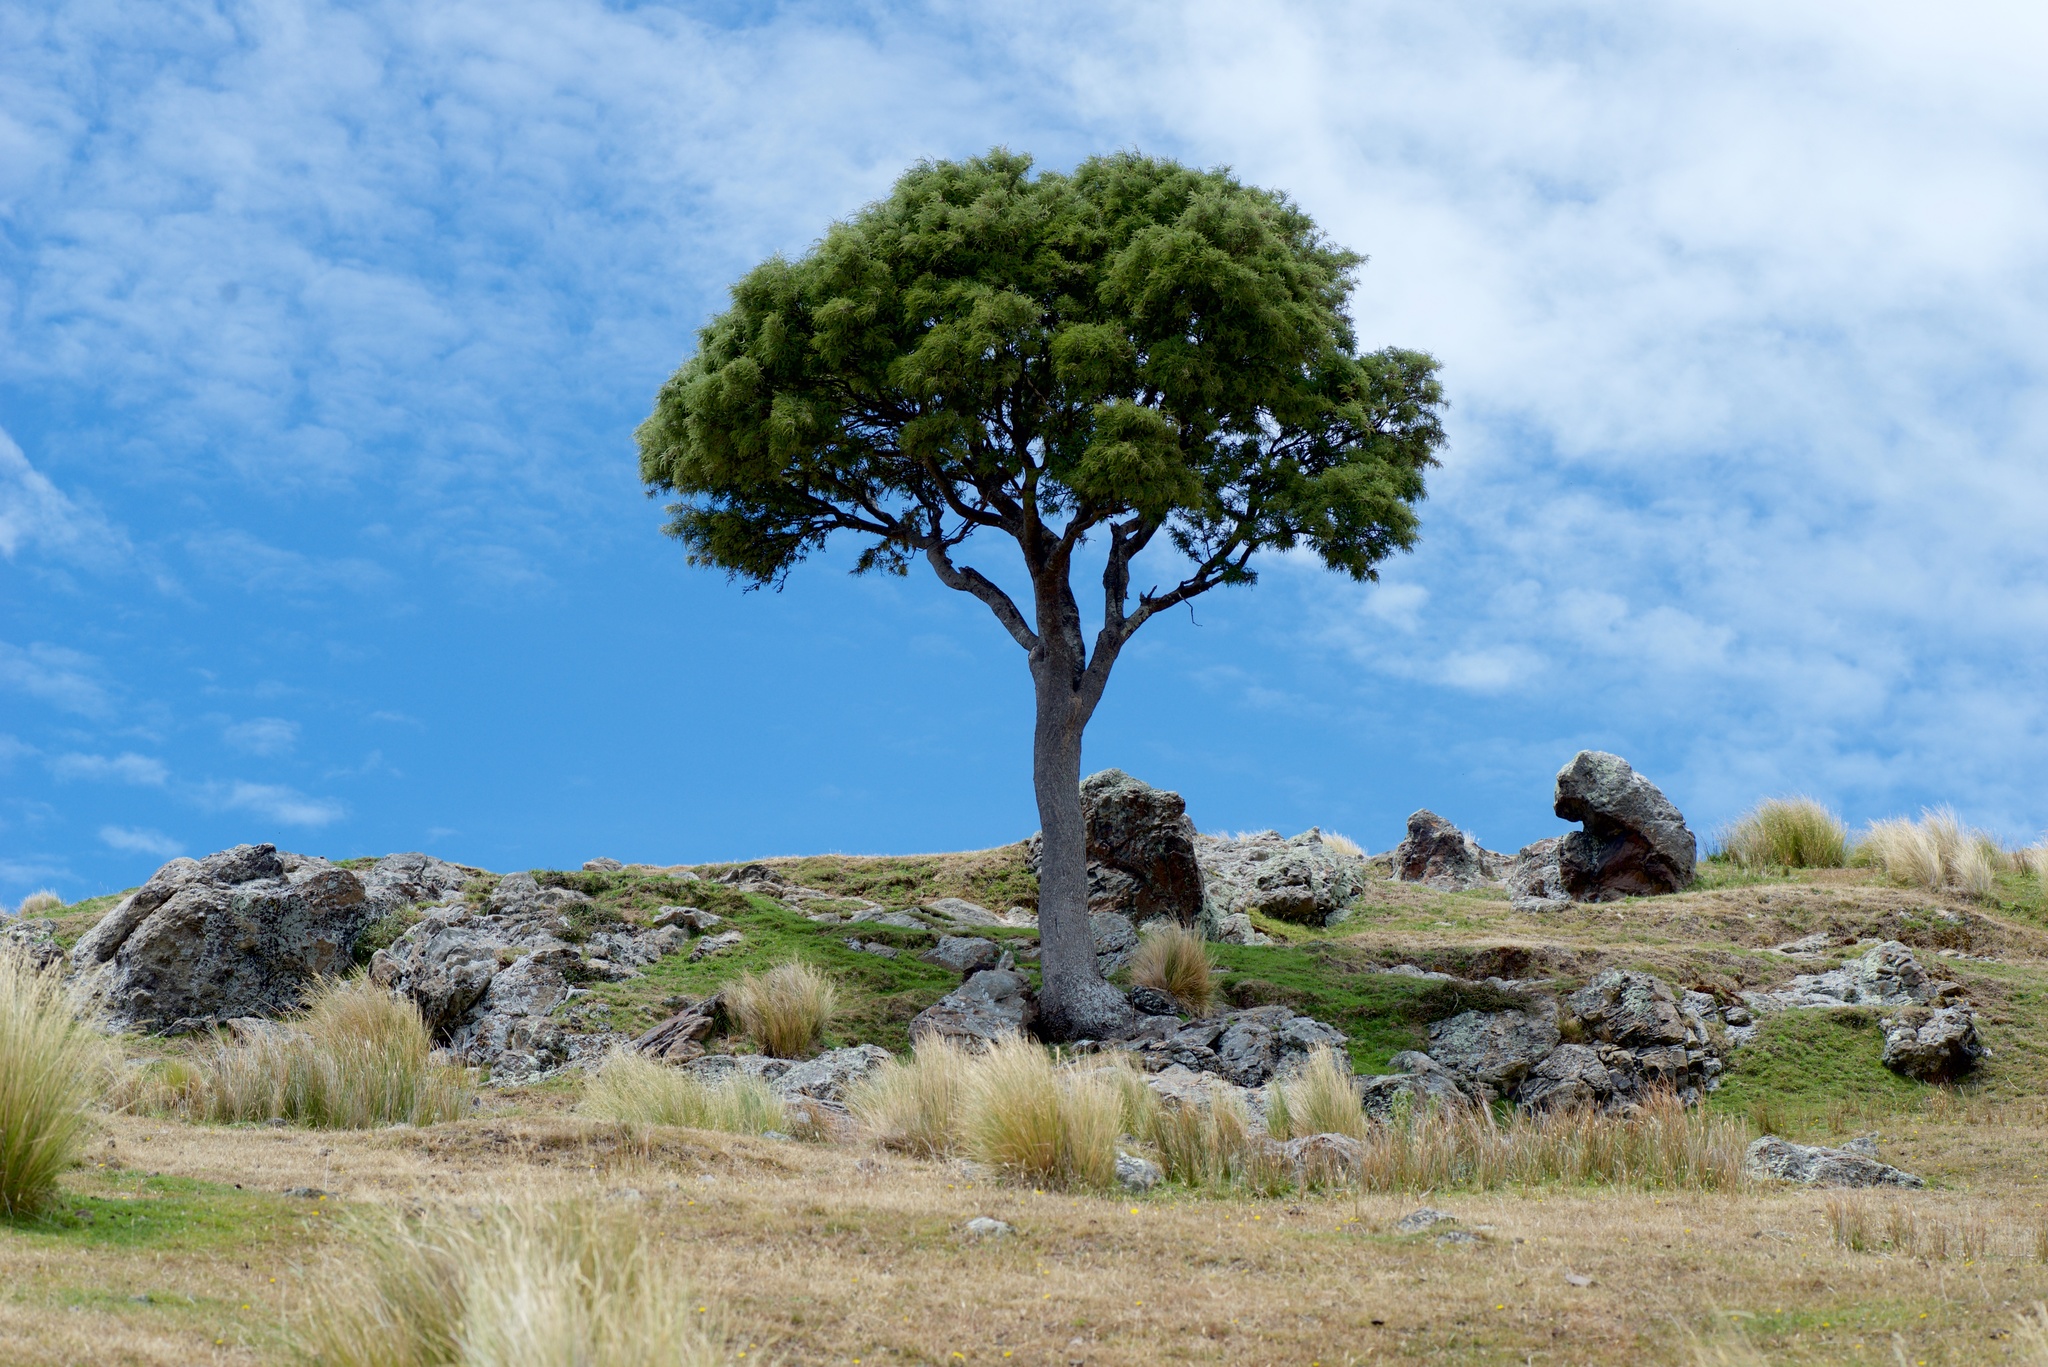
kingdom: Plantae
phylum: Tracheophyta
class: Magnoliopsida
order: Fabales
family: Fabaceae
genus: Sophora
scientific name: Sophora microphylla
